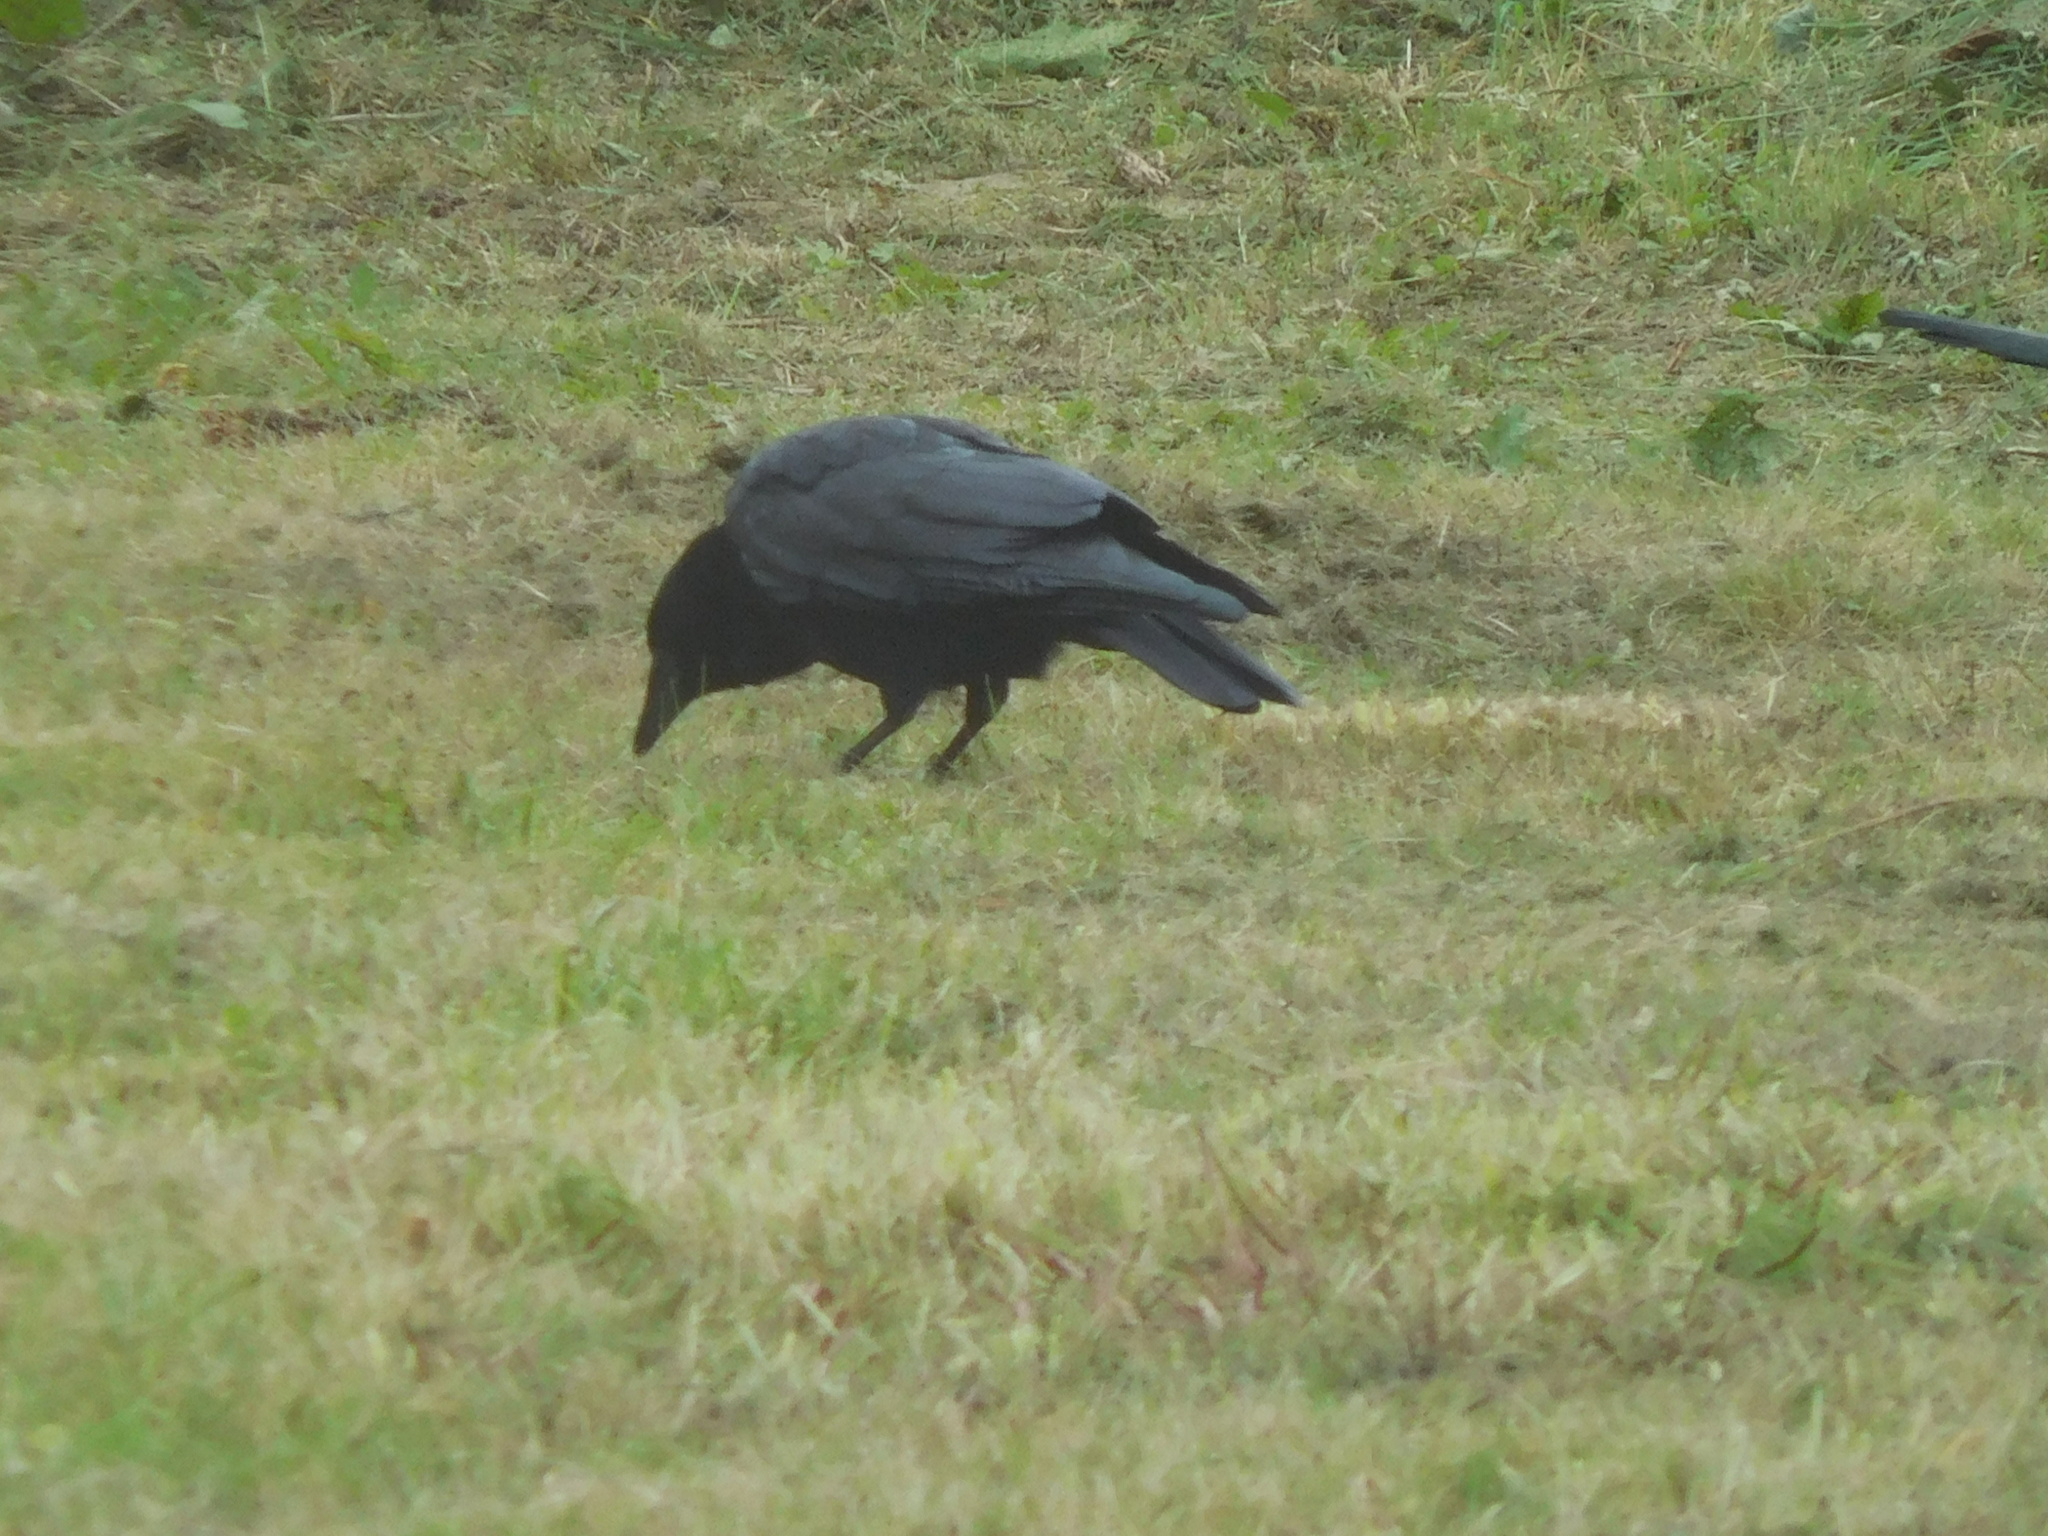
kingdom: Animalia
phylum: Chordata
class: Aves
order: Passeriformes
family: Corvidae
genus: Corvus
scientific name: Corvus corone
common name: Carrion crow
